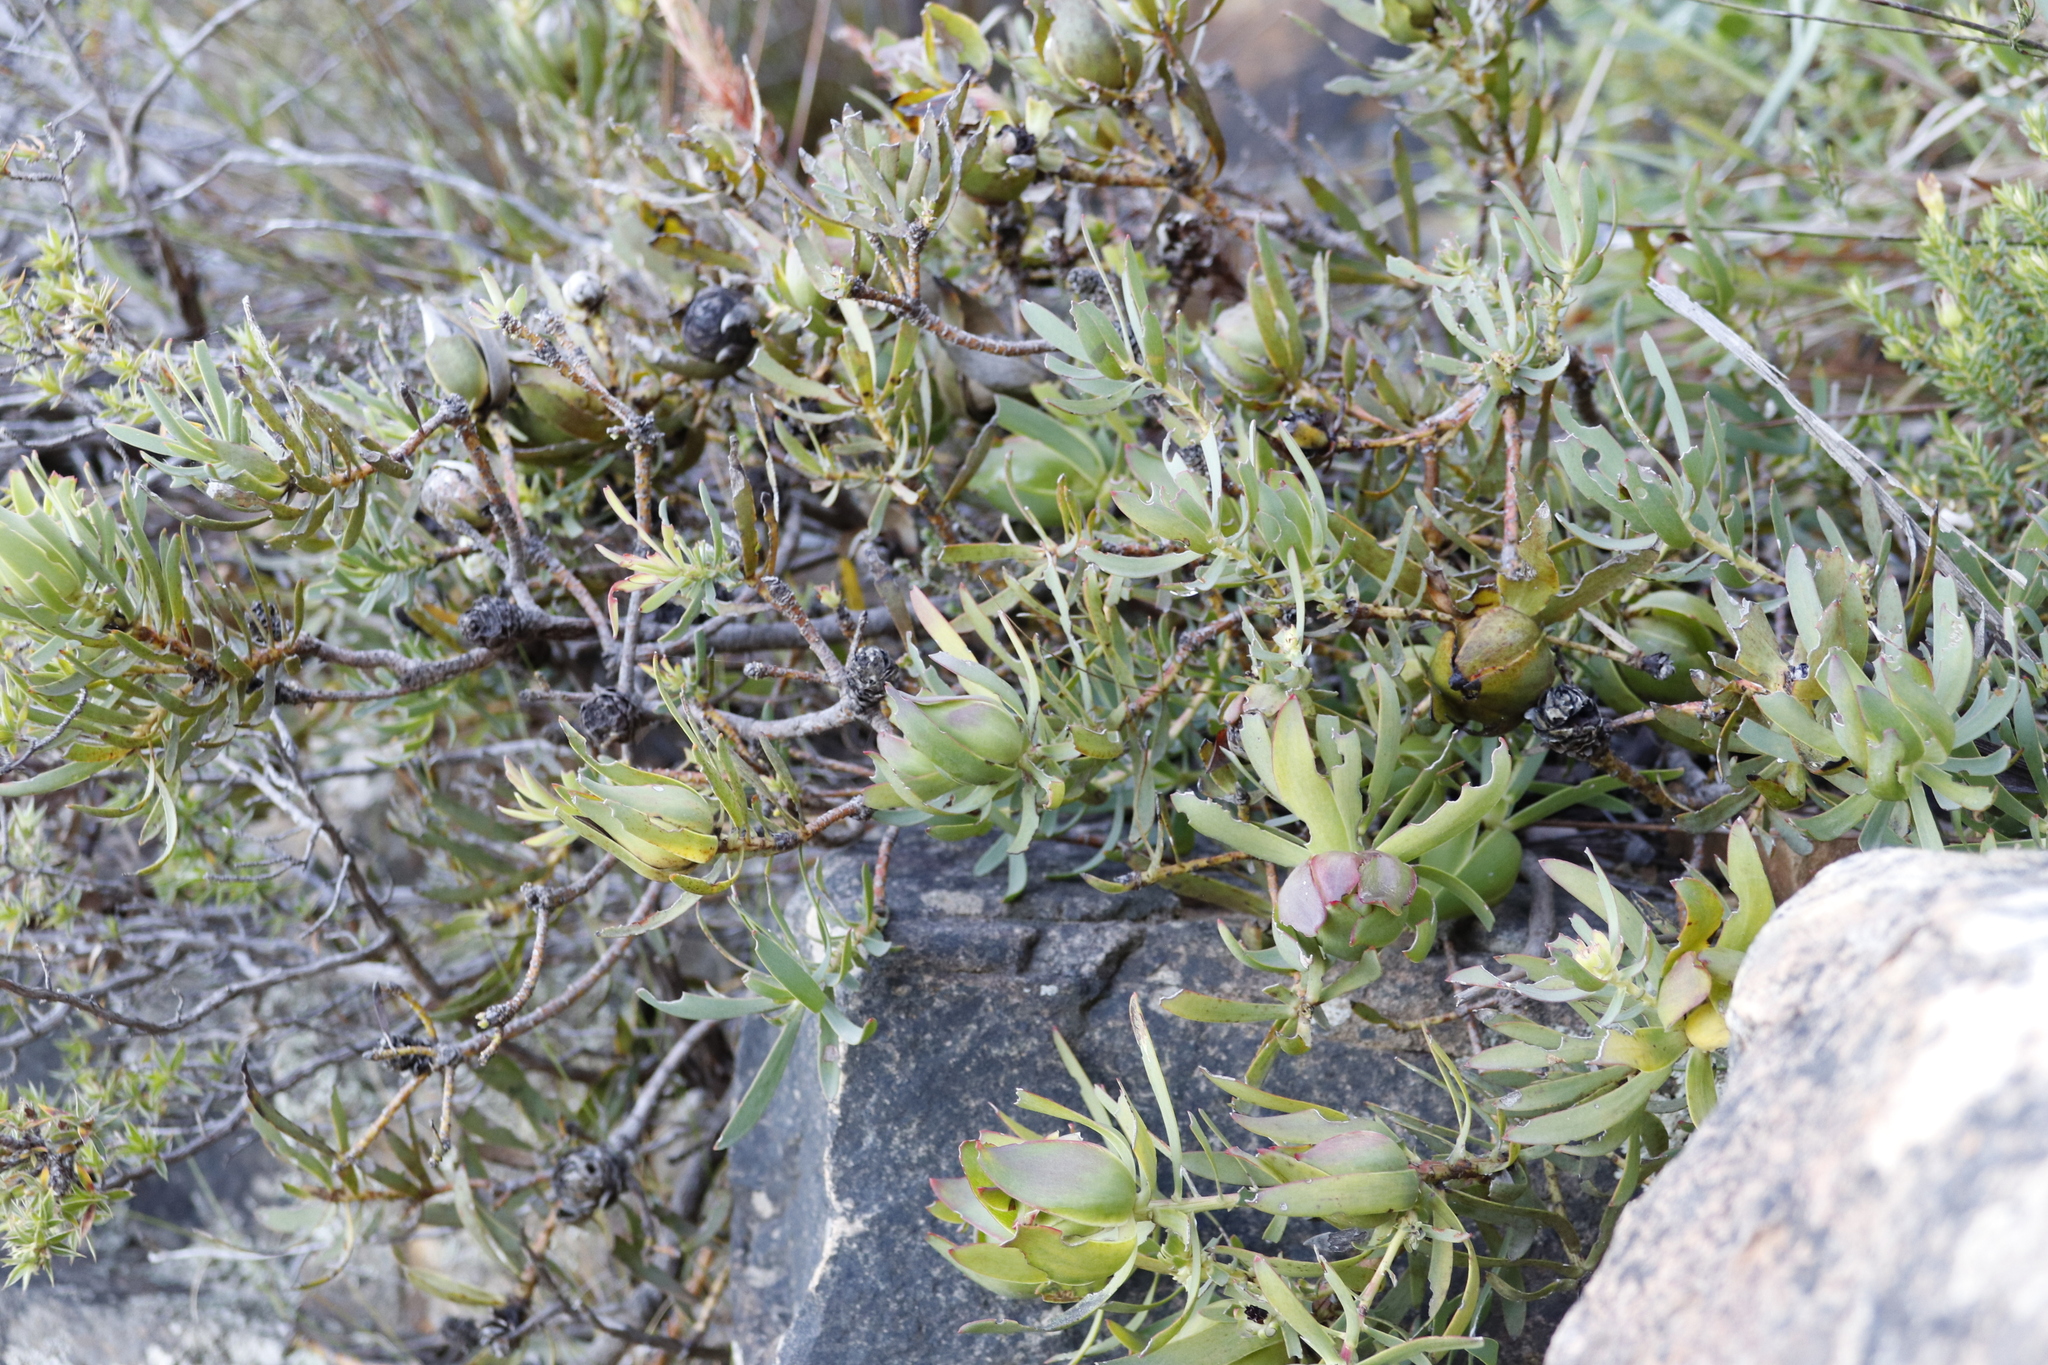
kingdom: Plantae
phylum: Tracheophyta
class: Magnoliopsida
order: Proteales
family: Proteaceae
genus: Leucadendron
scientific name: Leucadendron salignum
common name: Common sunshine conebush
